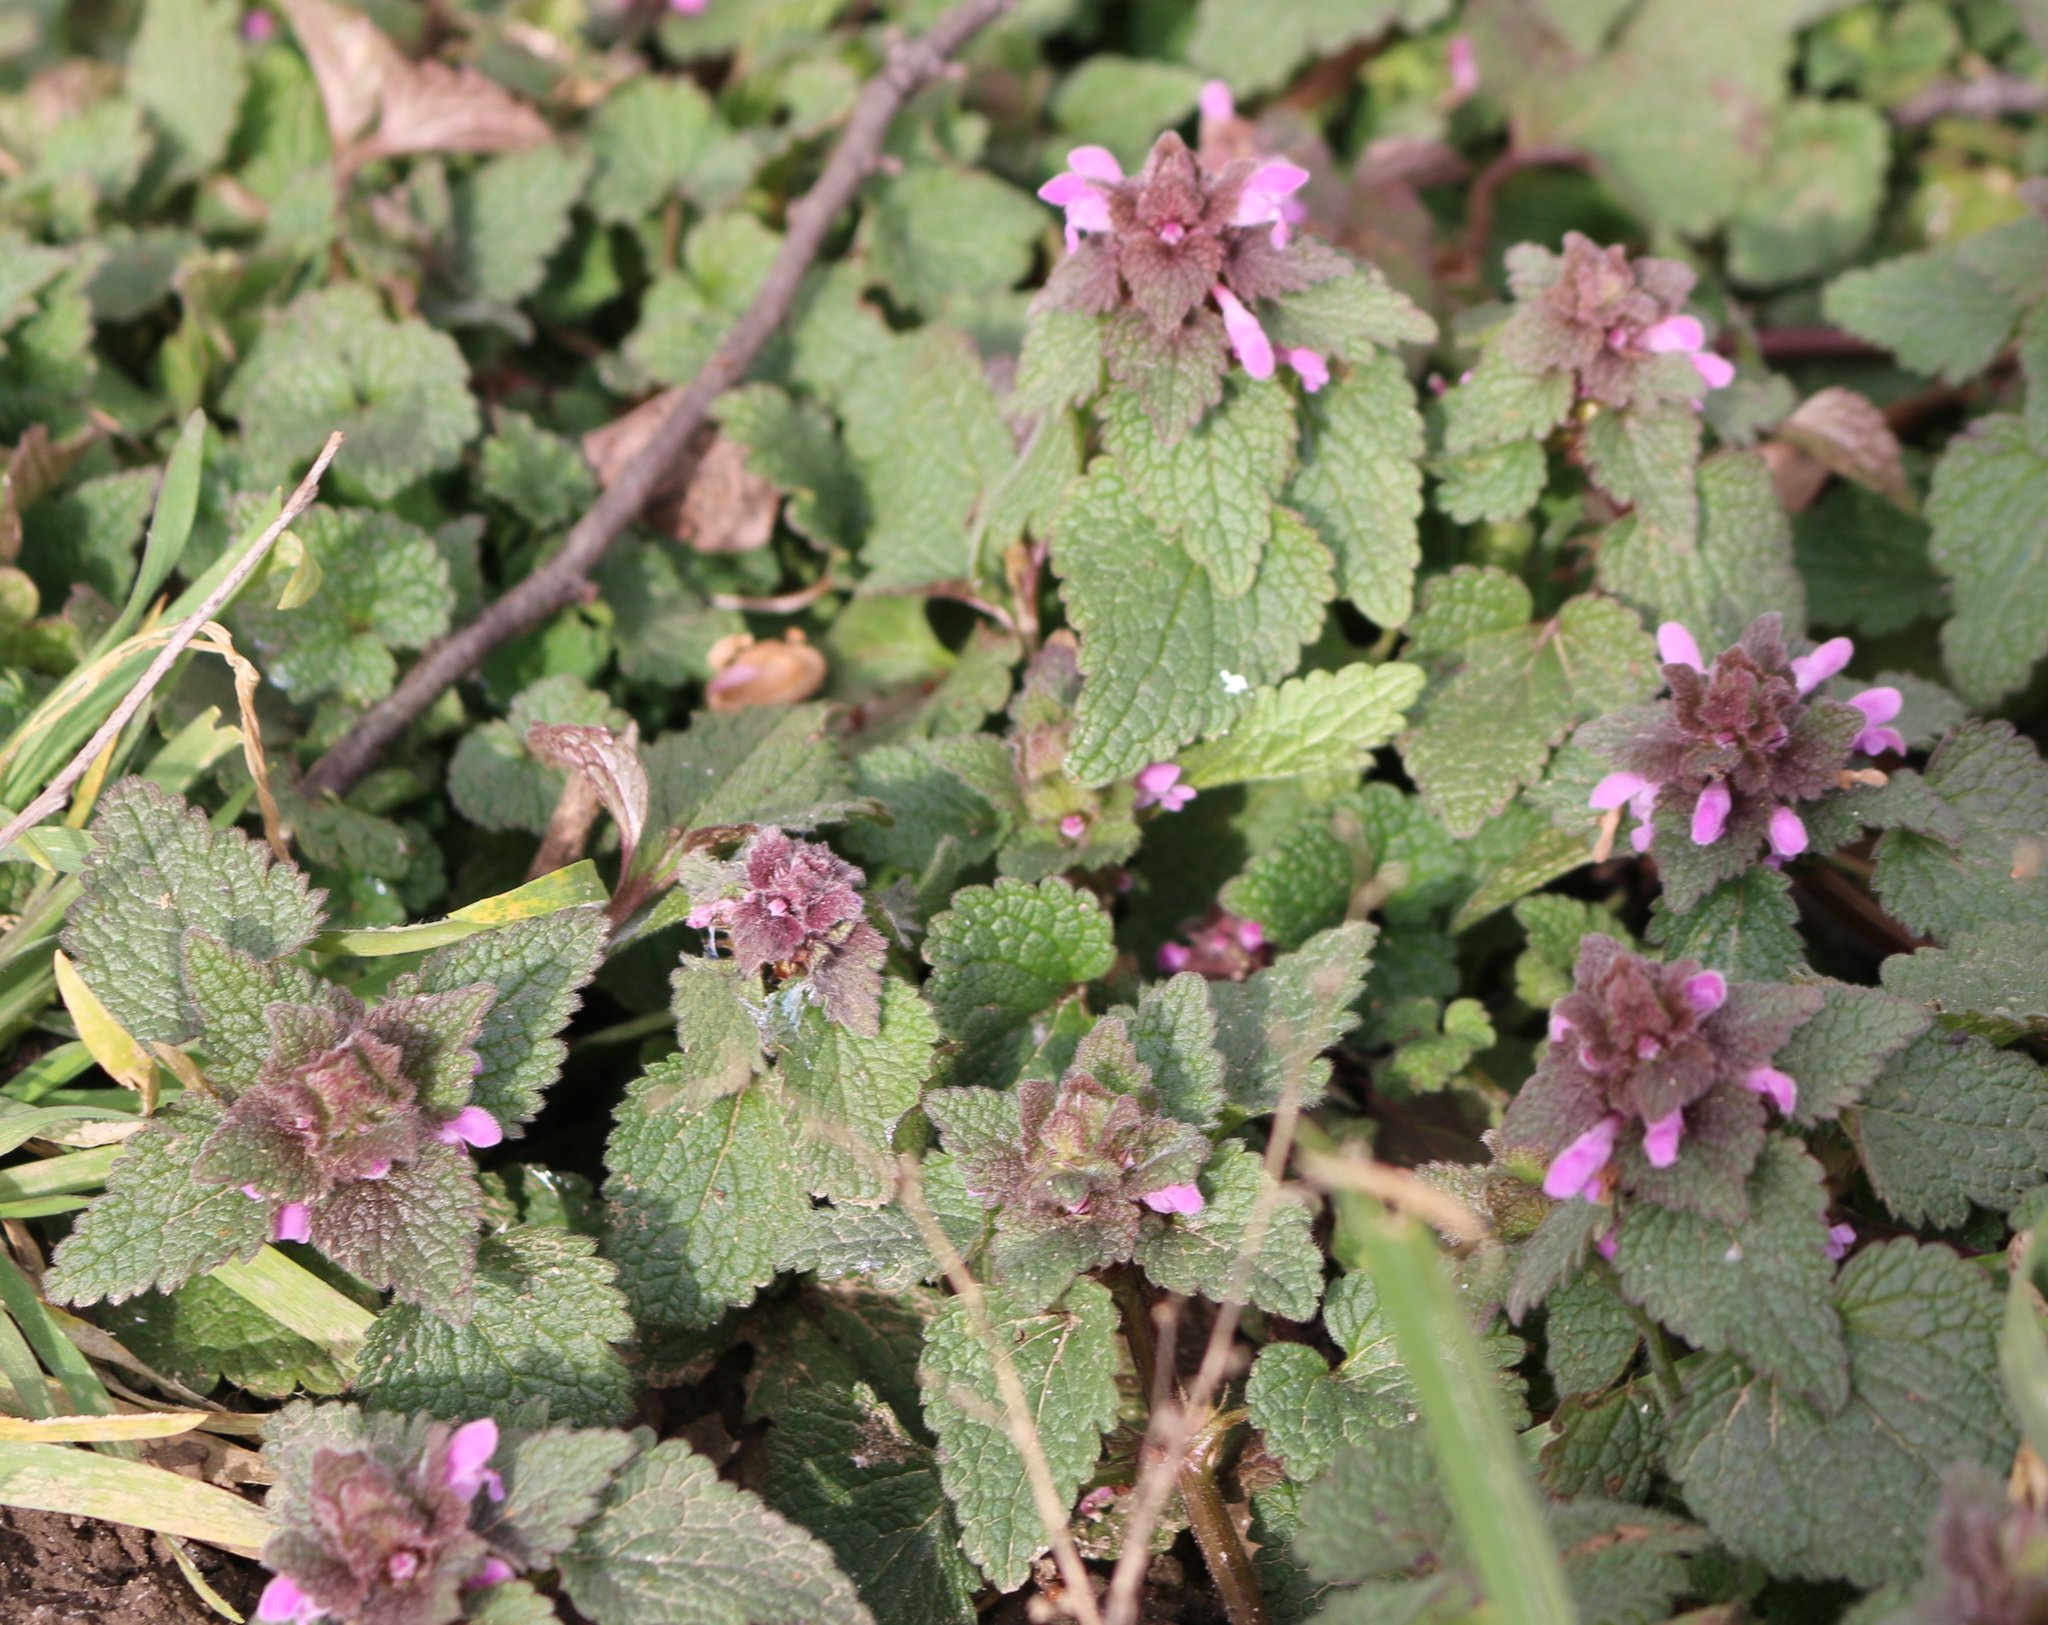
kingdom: Plantae
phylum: Tracheophyta
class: Magnoliopsida
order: Lamiales
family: Lamiaceae
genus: Lamium
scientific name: Lamium purpureum
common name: Red dead-nettle
